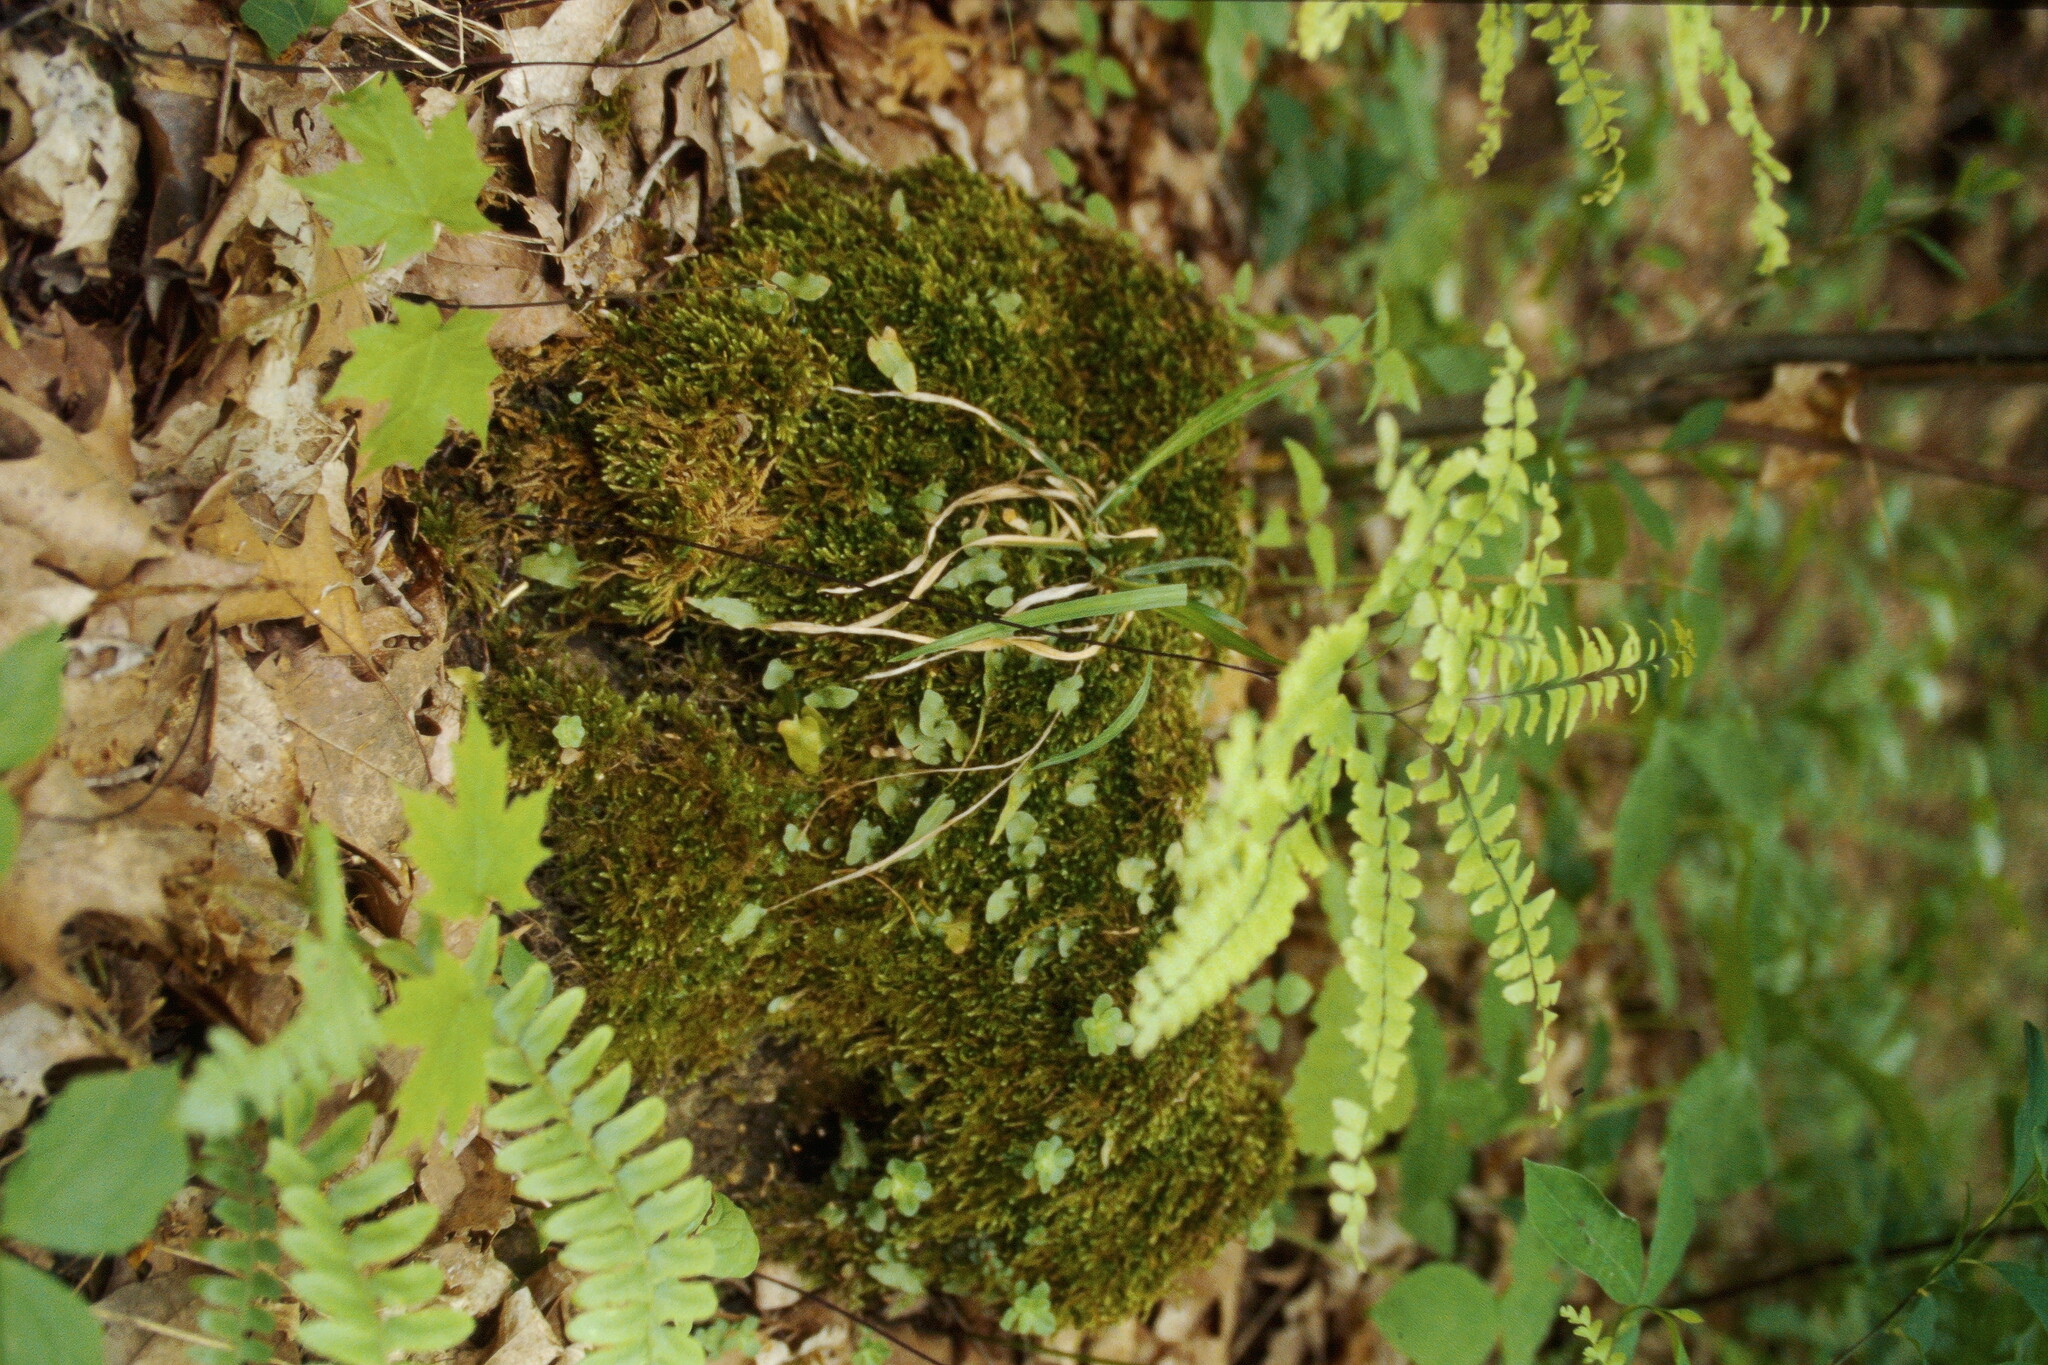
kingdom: Plantae
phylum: Tracheophyta
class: Polypodiopsida
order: Polypodiales
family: Pteridaceae
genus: Adiantum
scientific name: Adiantum pedatum
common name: Five-finger fern
